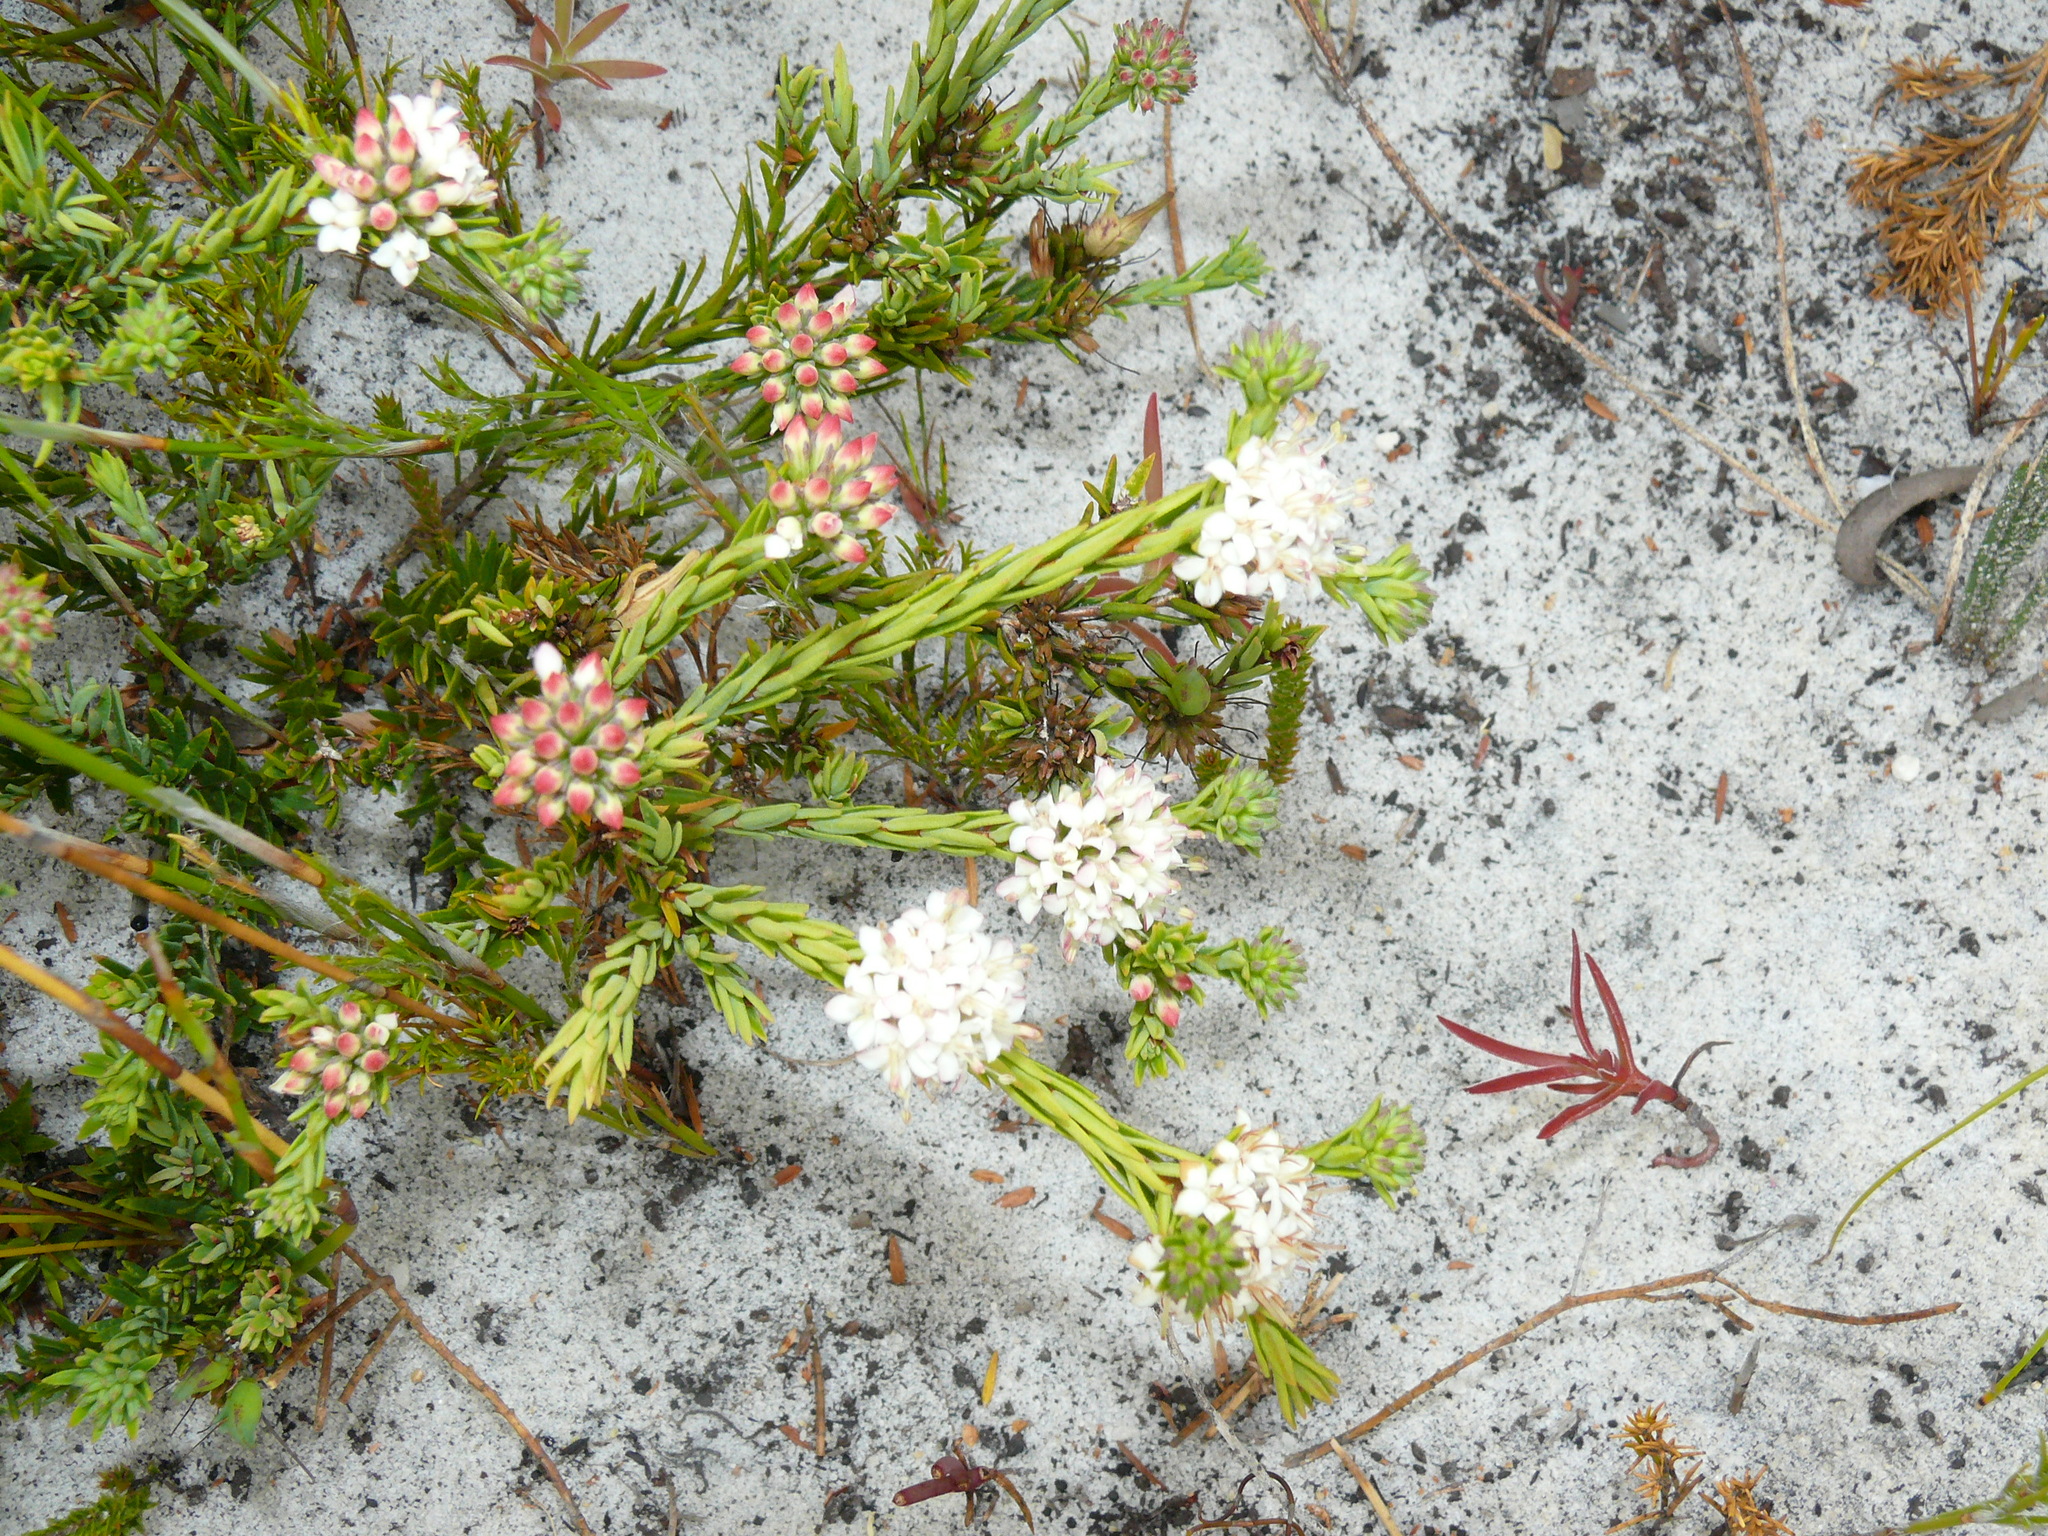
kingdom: Plantae
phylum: Tracheophyta
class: Magnoliopsida
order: Sapindales
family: Rutaceae
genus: Macrostylis
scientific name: Macrostylis villosa
